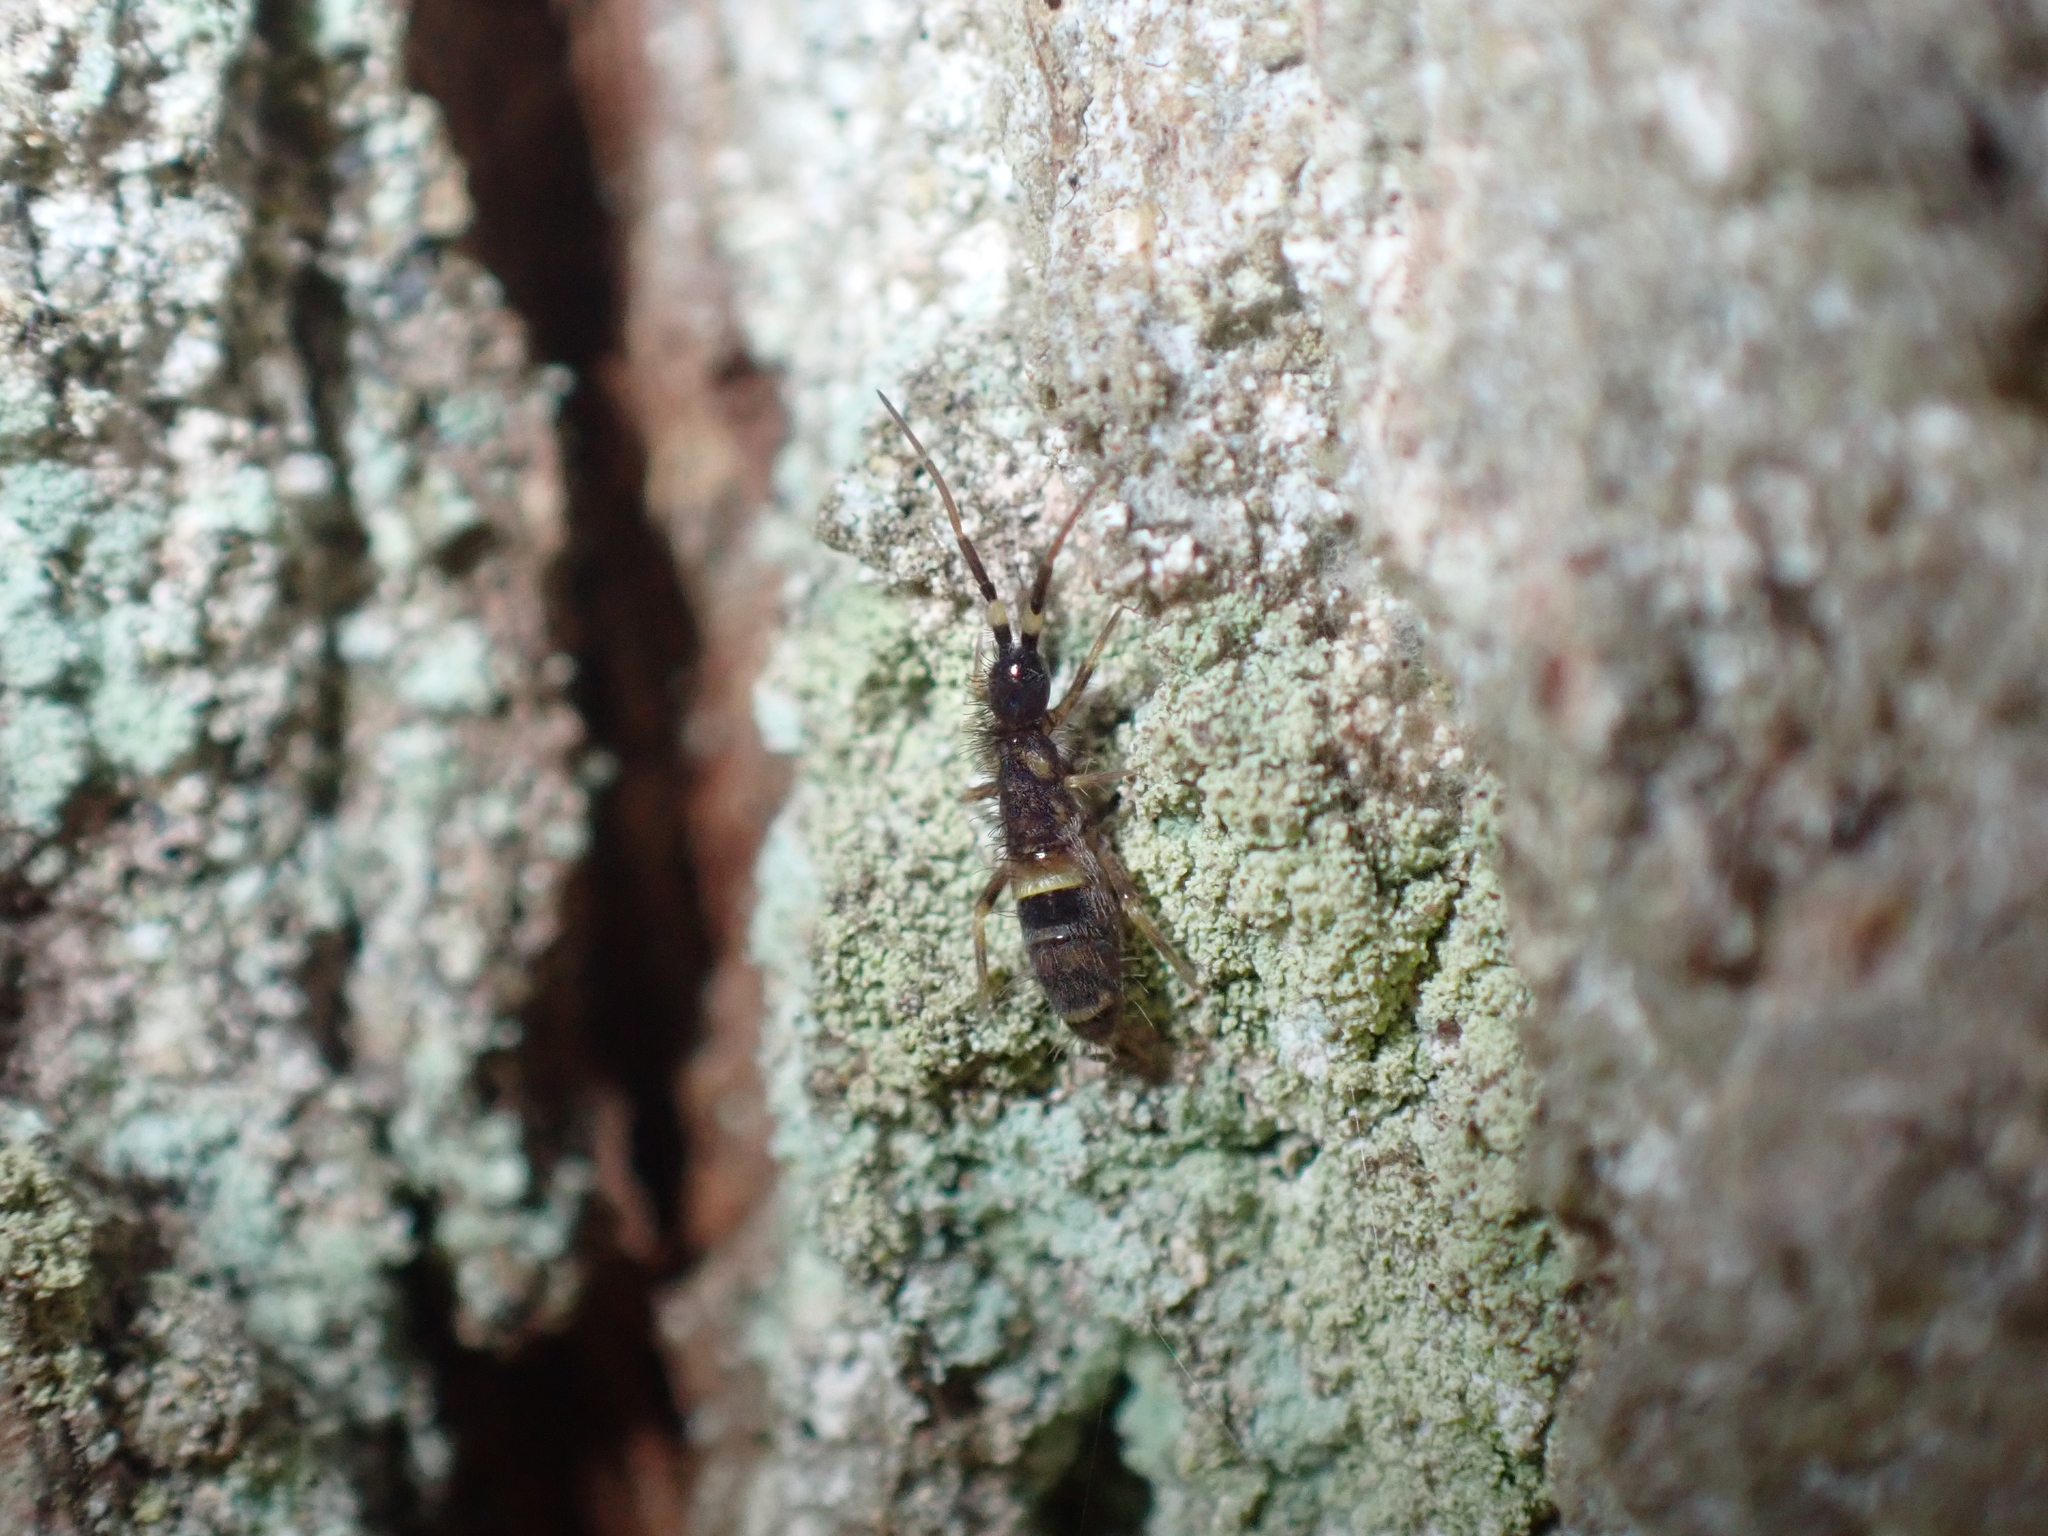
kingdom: Animalia
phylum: Arthropoda
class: Collembola
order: Entomobryomorpha
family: Orchesellidae
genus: Orchesella
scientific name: Orchesella cincta
